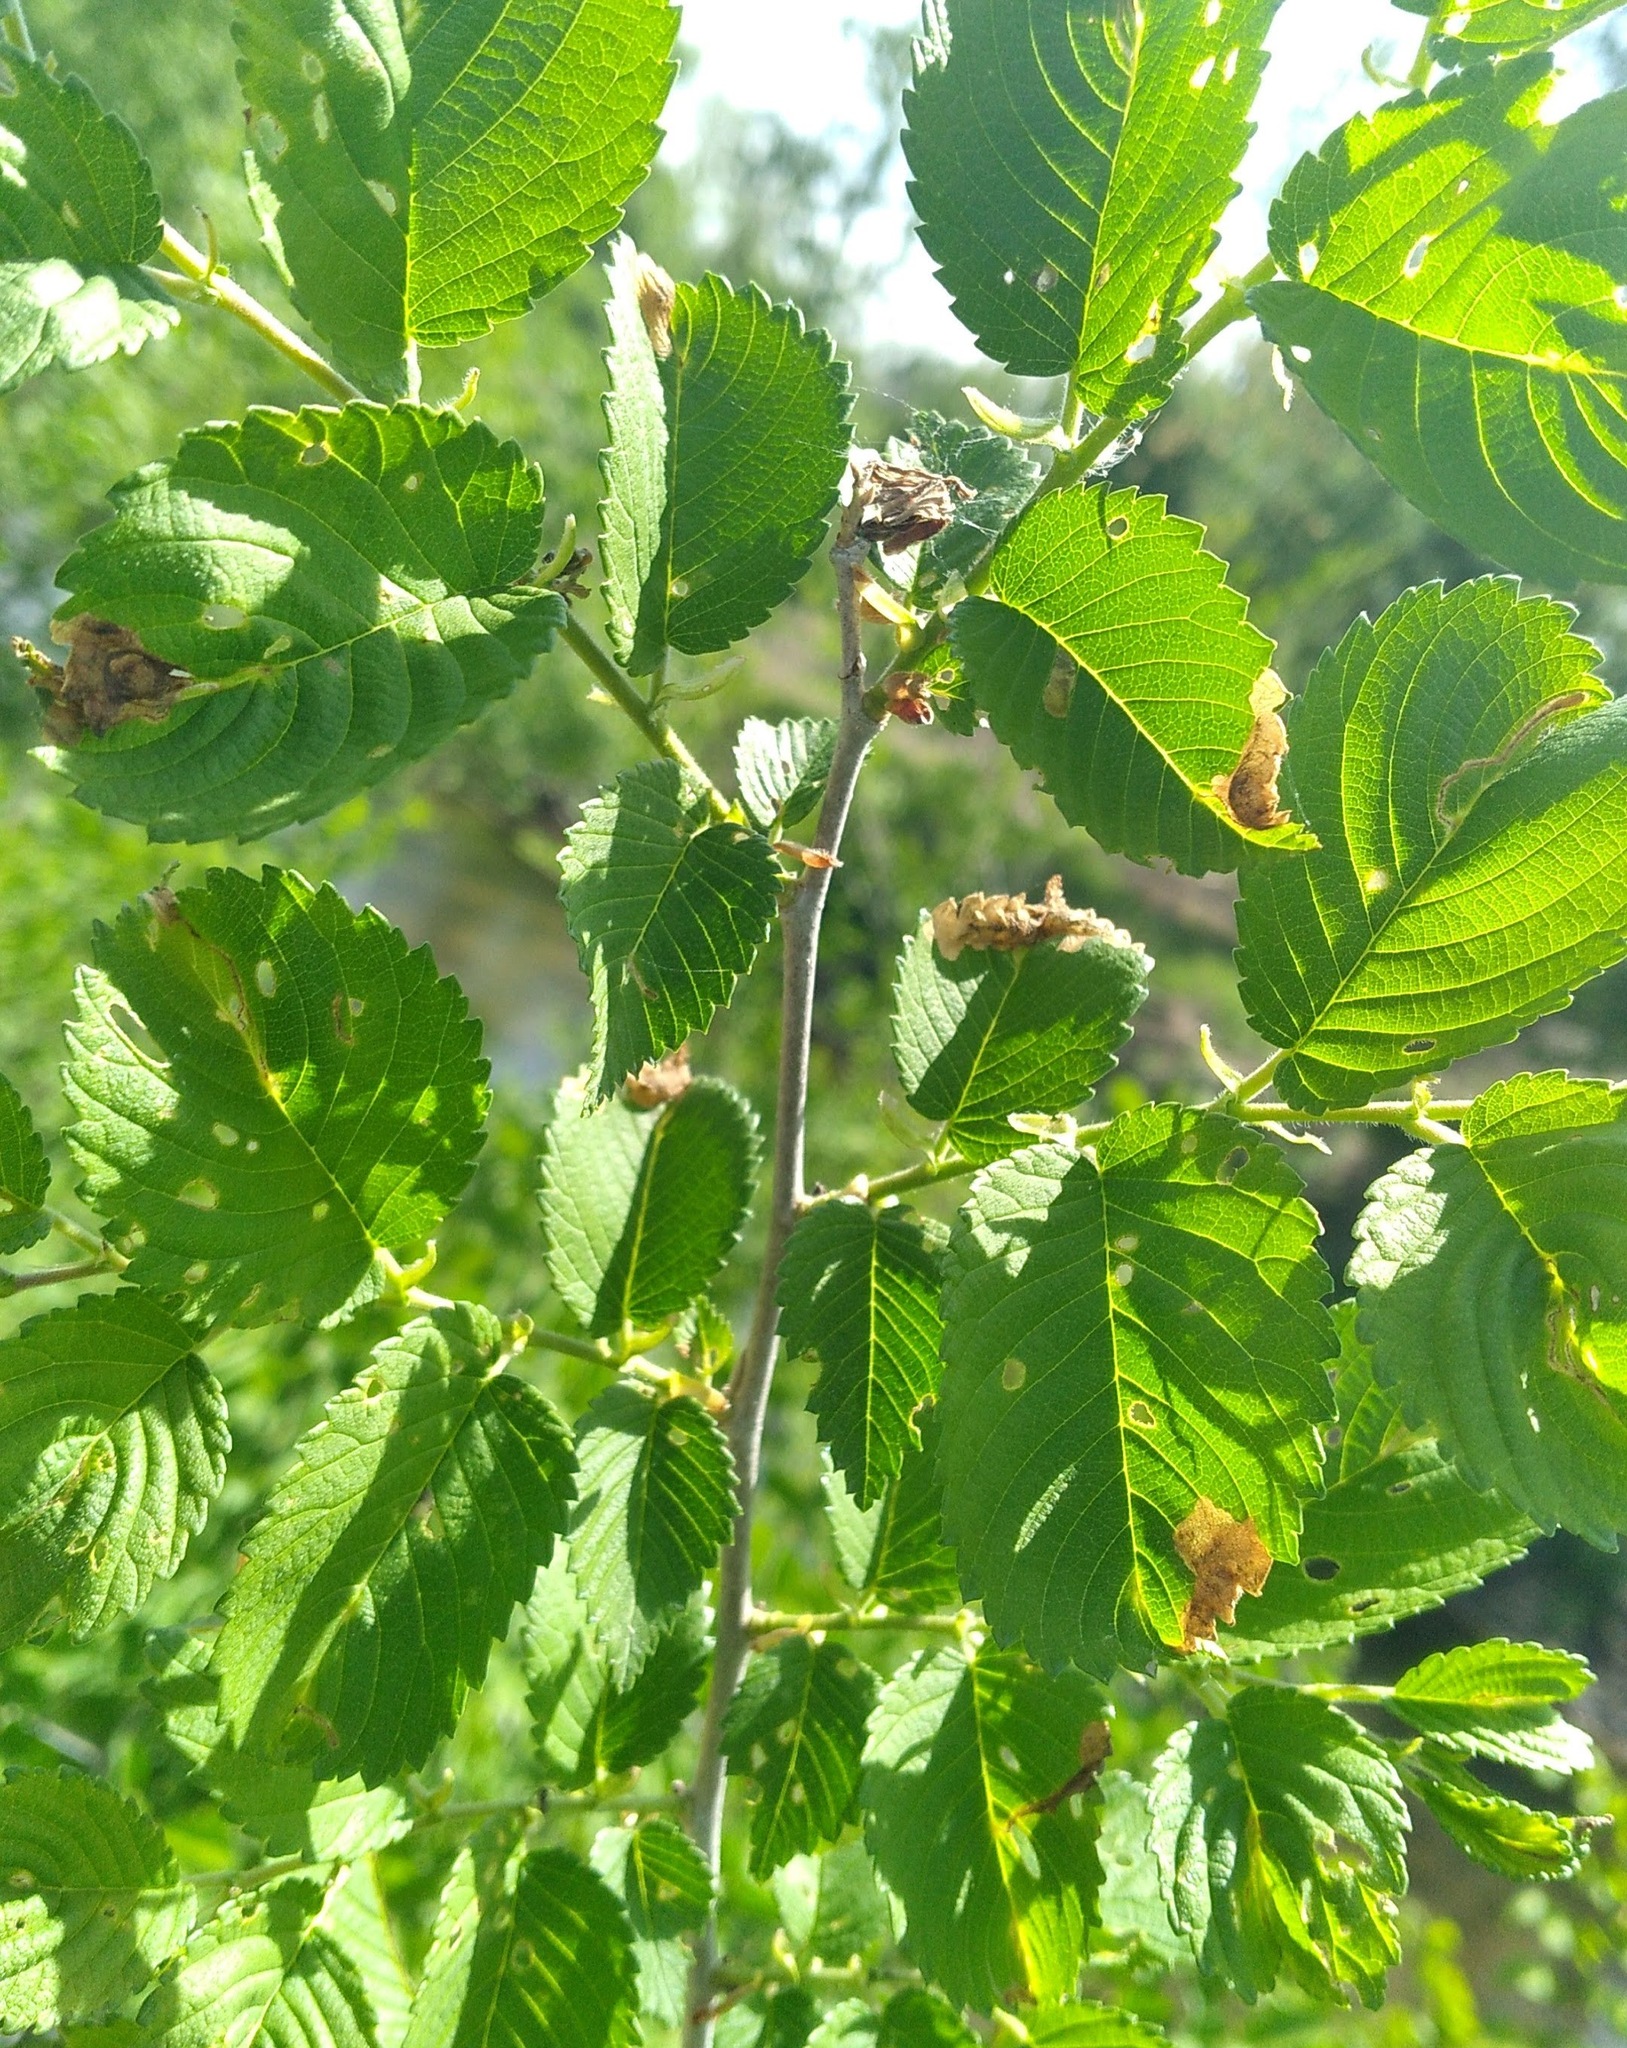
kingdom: Animalia
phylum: Arthropoda
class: Insecta
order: Coleoptera
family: Curculionidae
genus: Orchestes
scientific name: Orchestes steppensis
